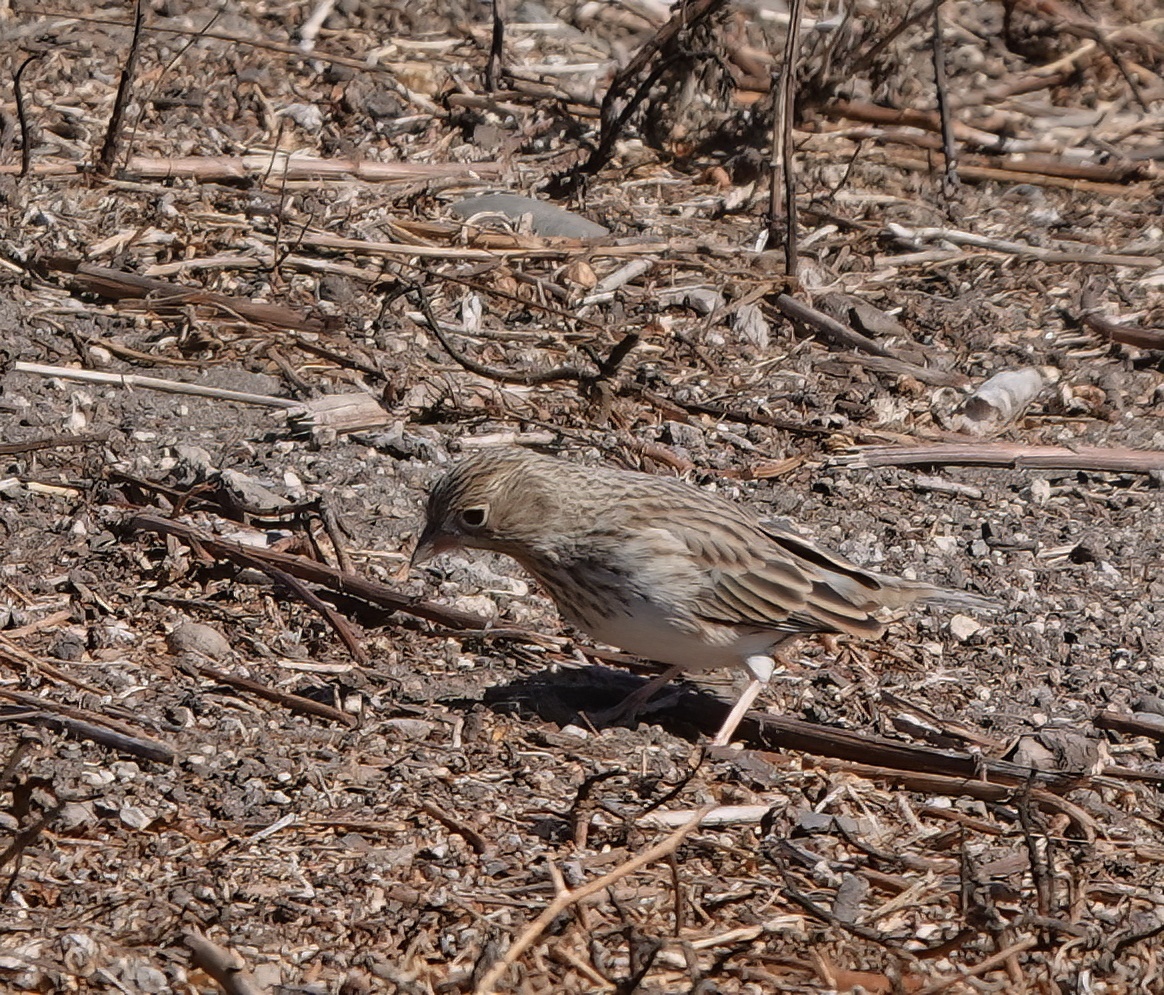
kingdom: Animalia
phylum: Chordata
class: Aves
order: Passeriformes
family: Thraupidae
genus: Porphyrospiza
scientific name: Porphyrospiza alaudina
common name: Band-tailed sierra finch
